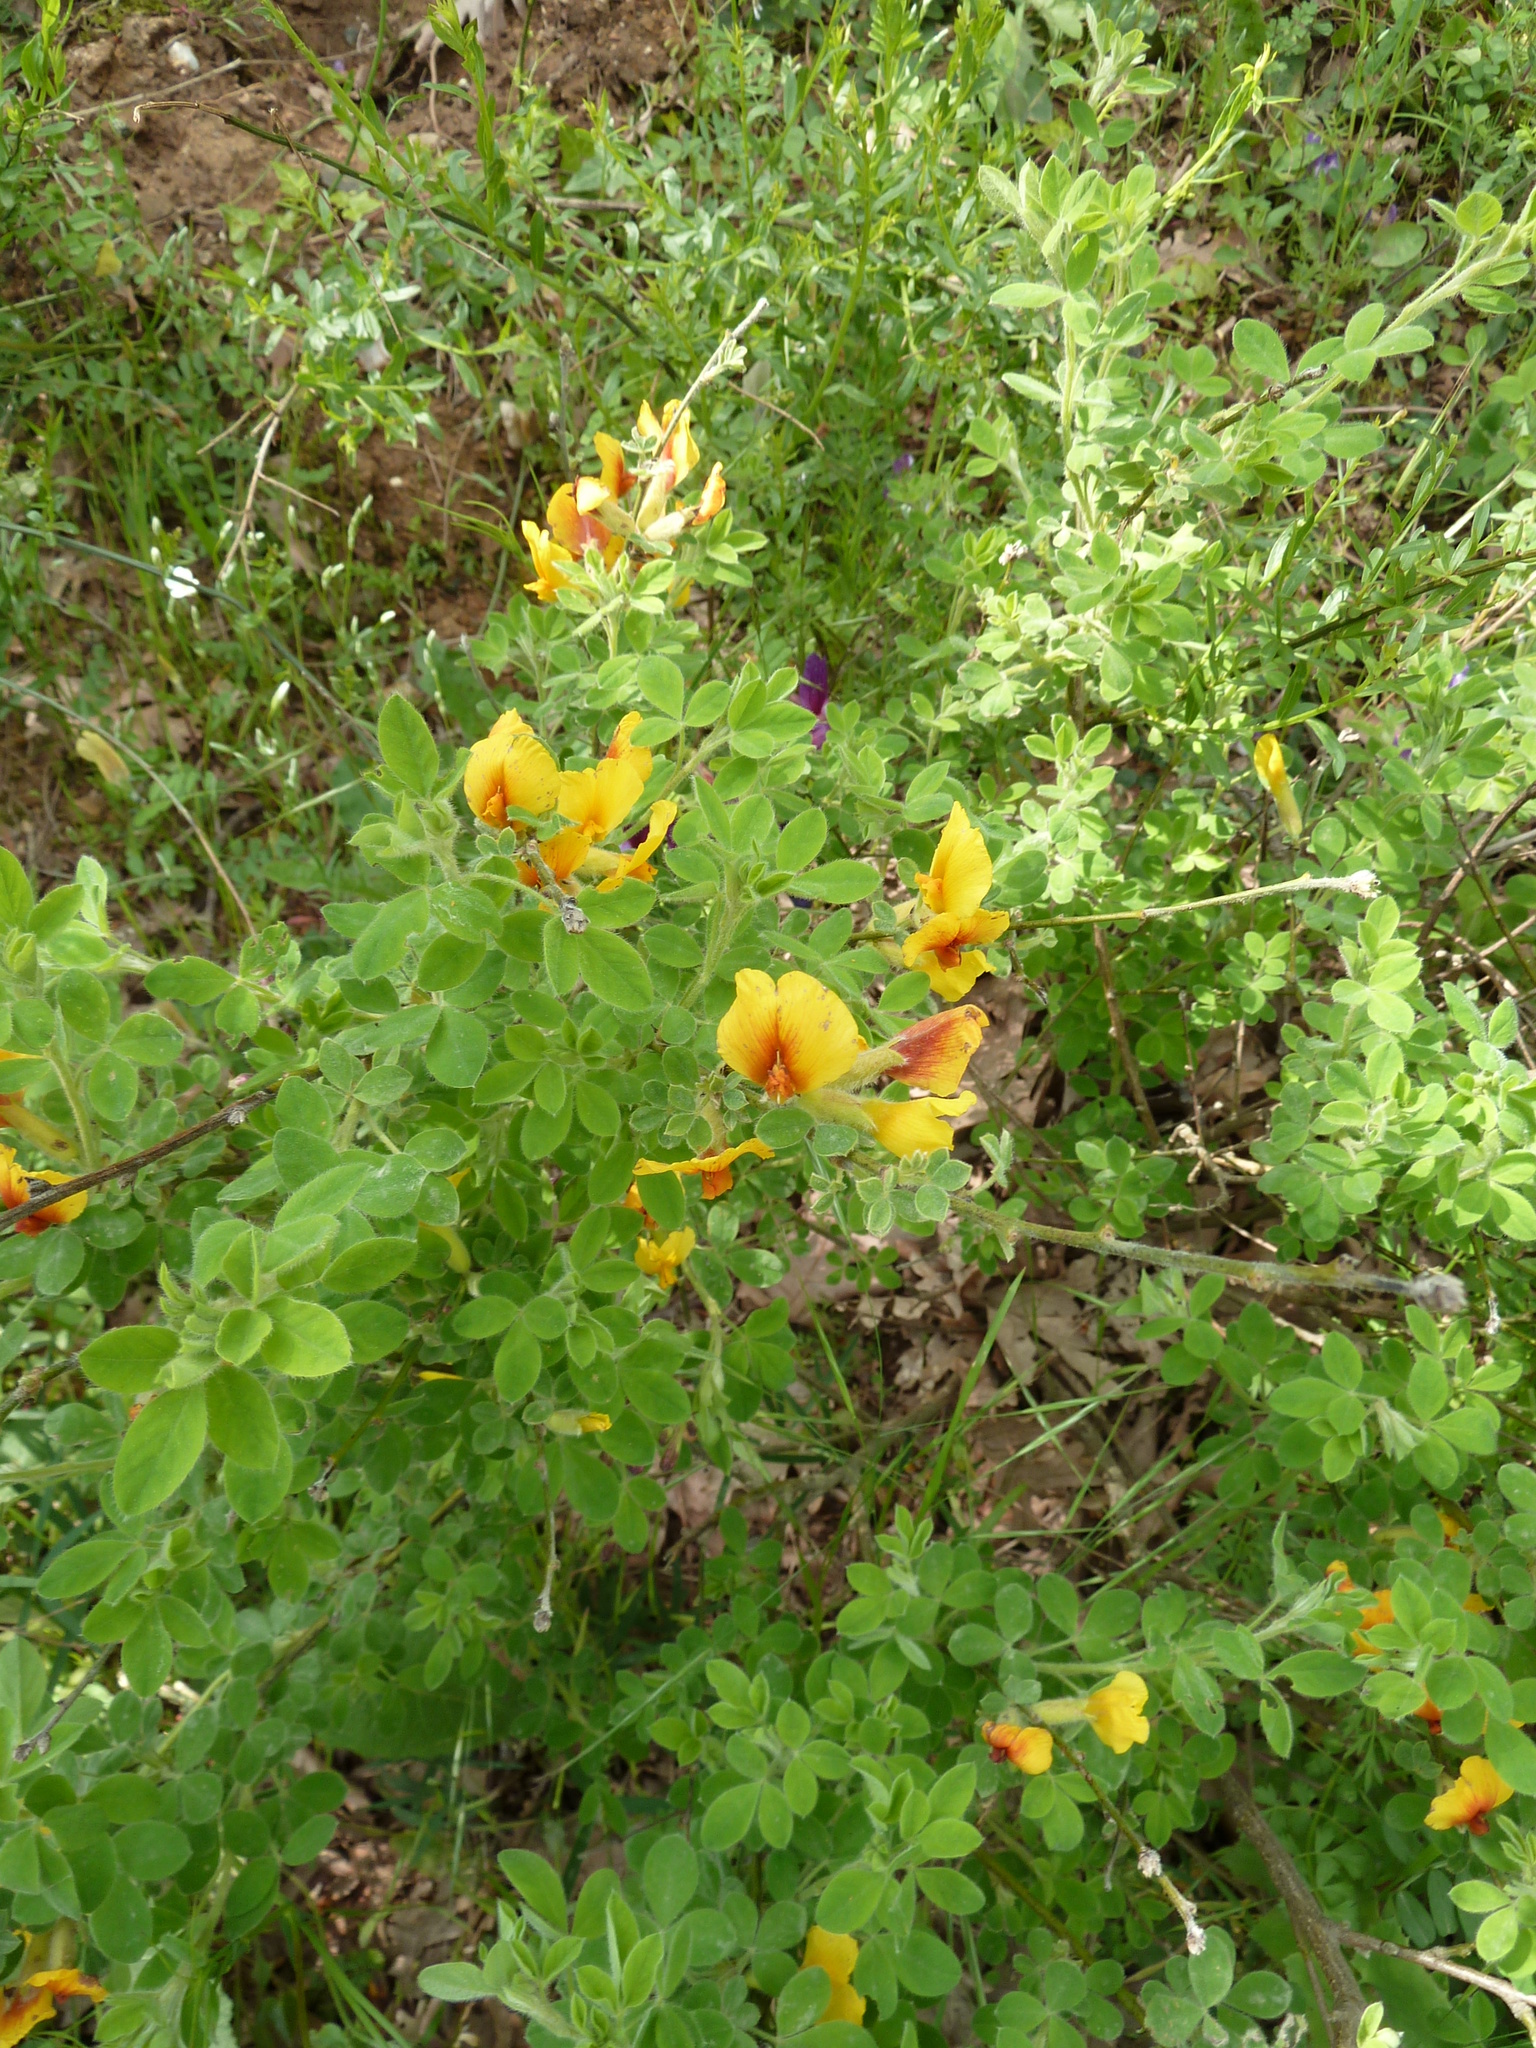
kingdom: Plantae
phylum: Tracheophyta
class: Magnoliopsida
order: Fabales
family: Fabaceae
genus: Chamaecytisus
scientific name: Chamaecytisus hirsutus
